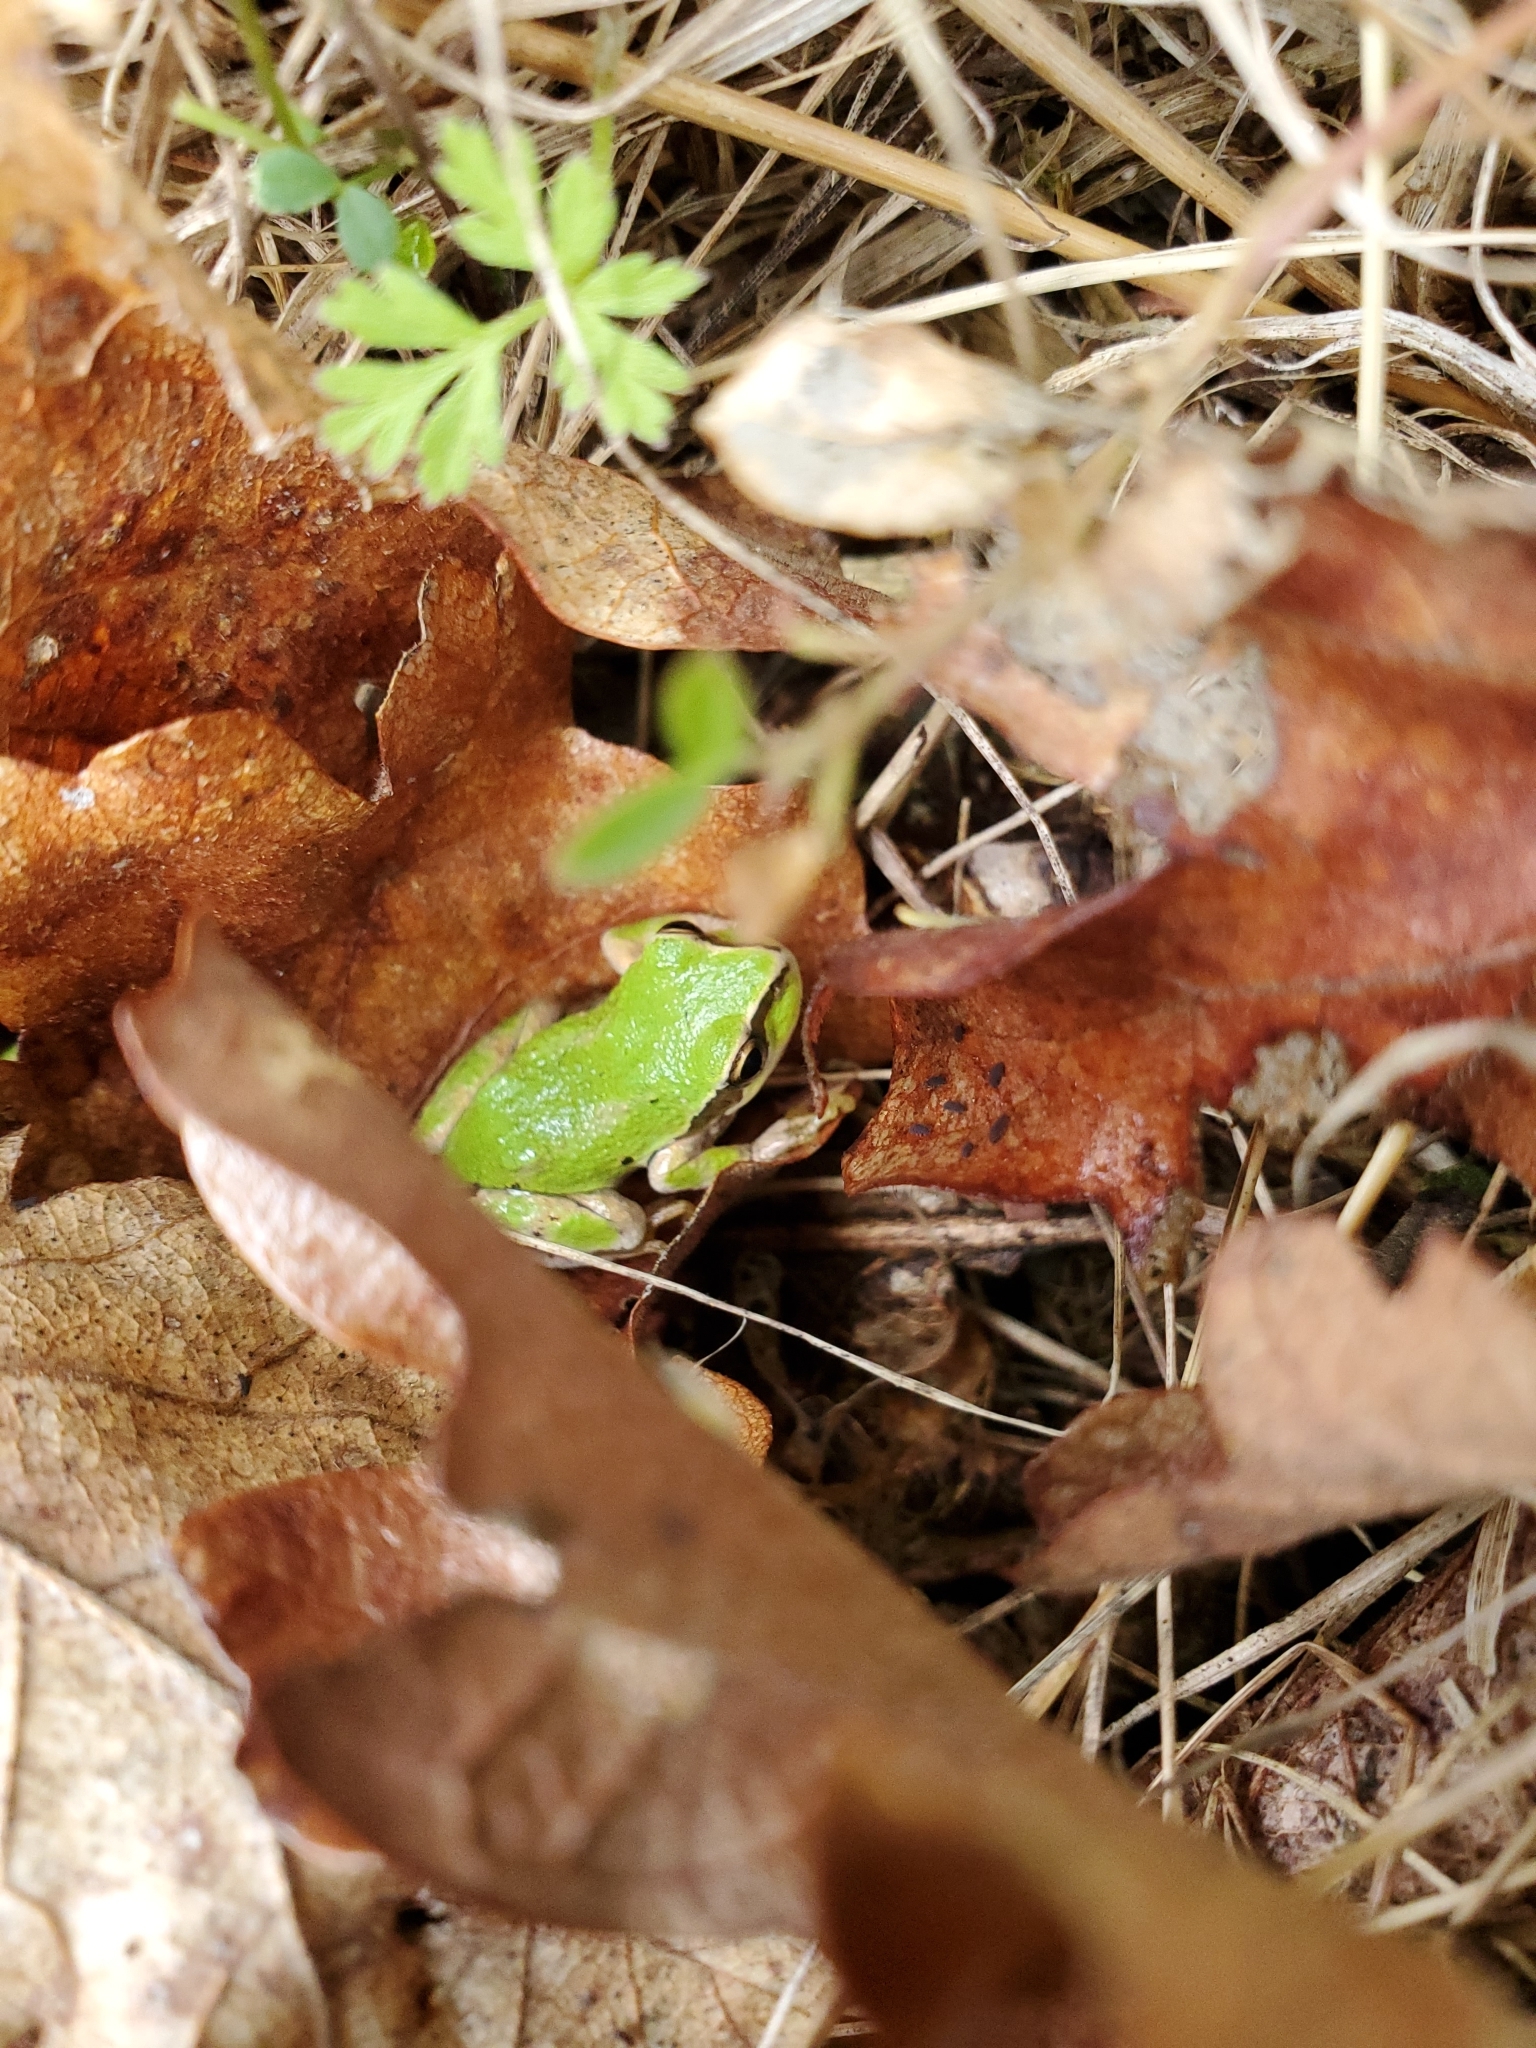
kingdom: Animalia
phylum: Chordata
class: Amphibia
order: Anura
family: Hylidae
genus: Pseudacris
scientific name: Pseudacris regilla
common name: Pacific chorus frog
